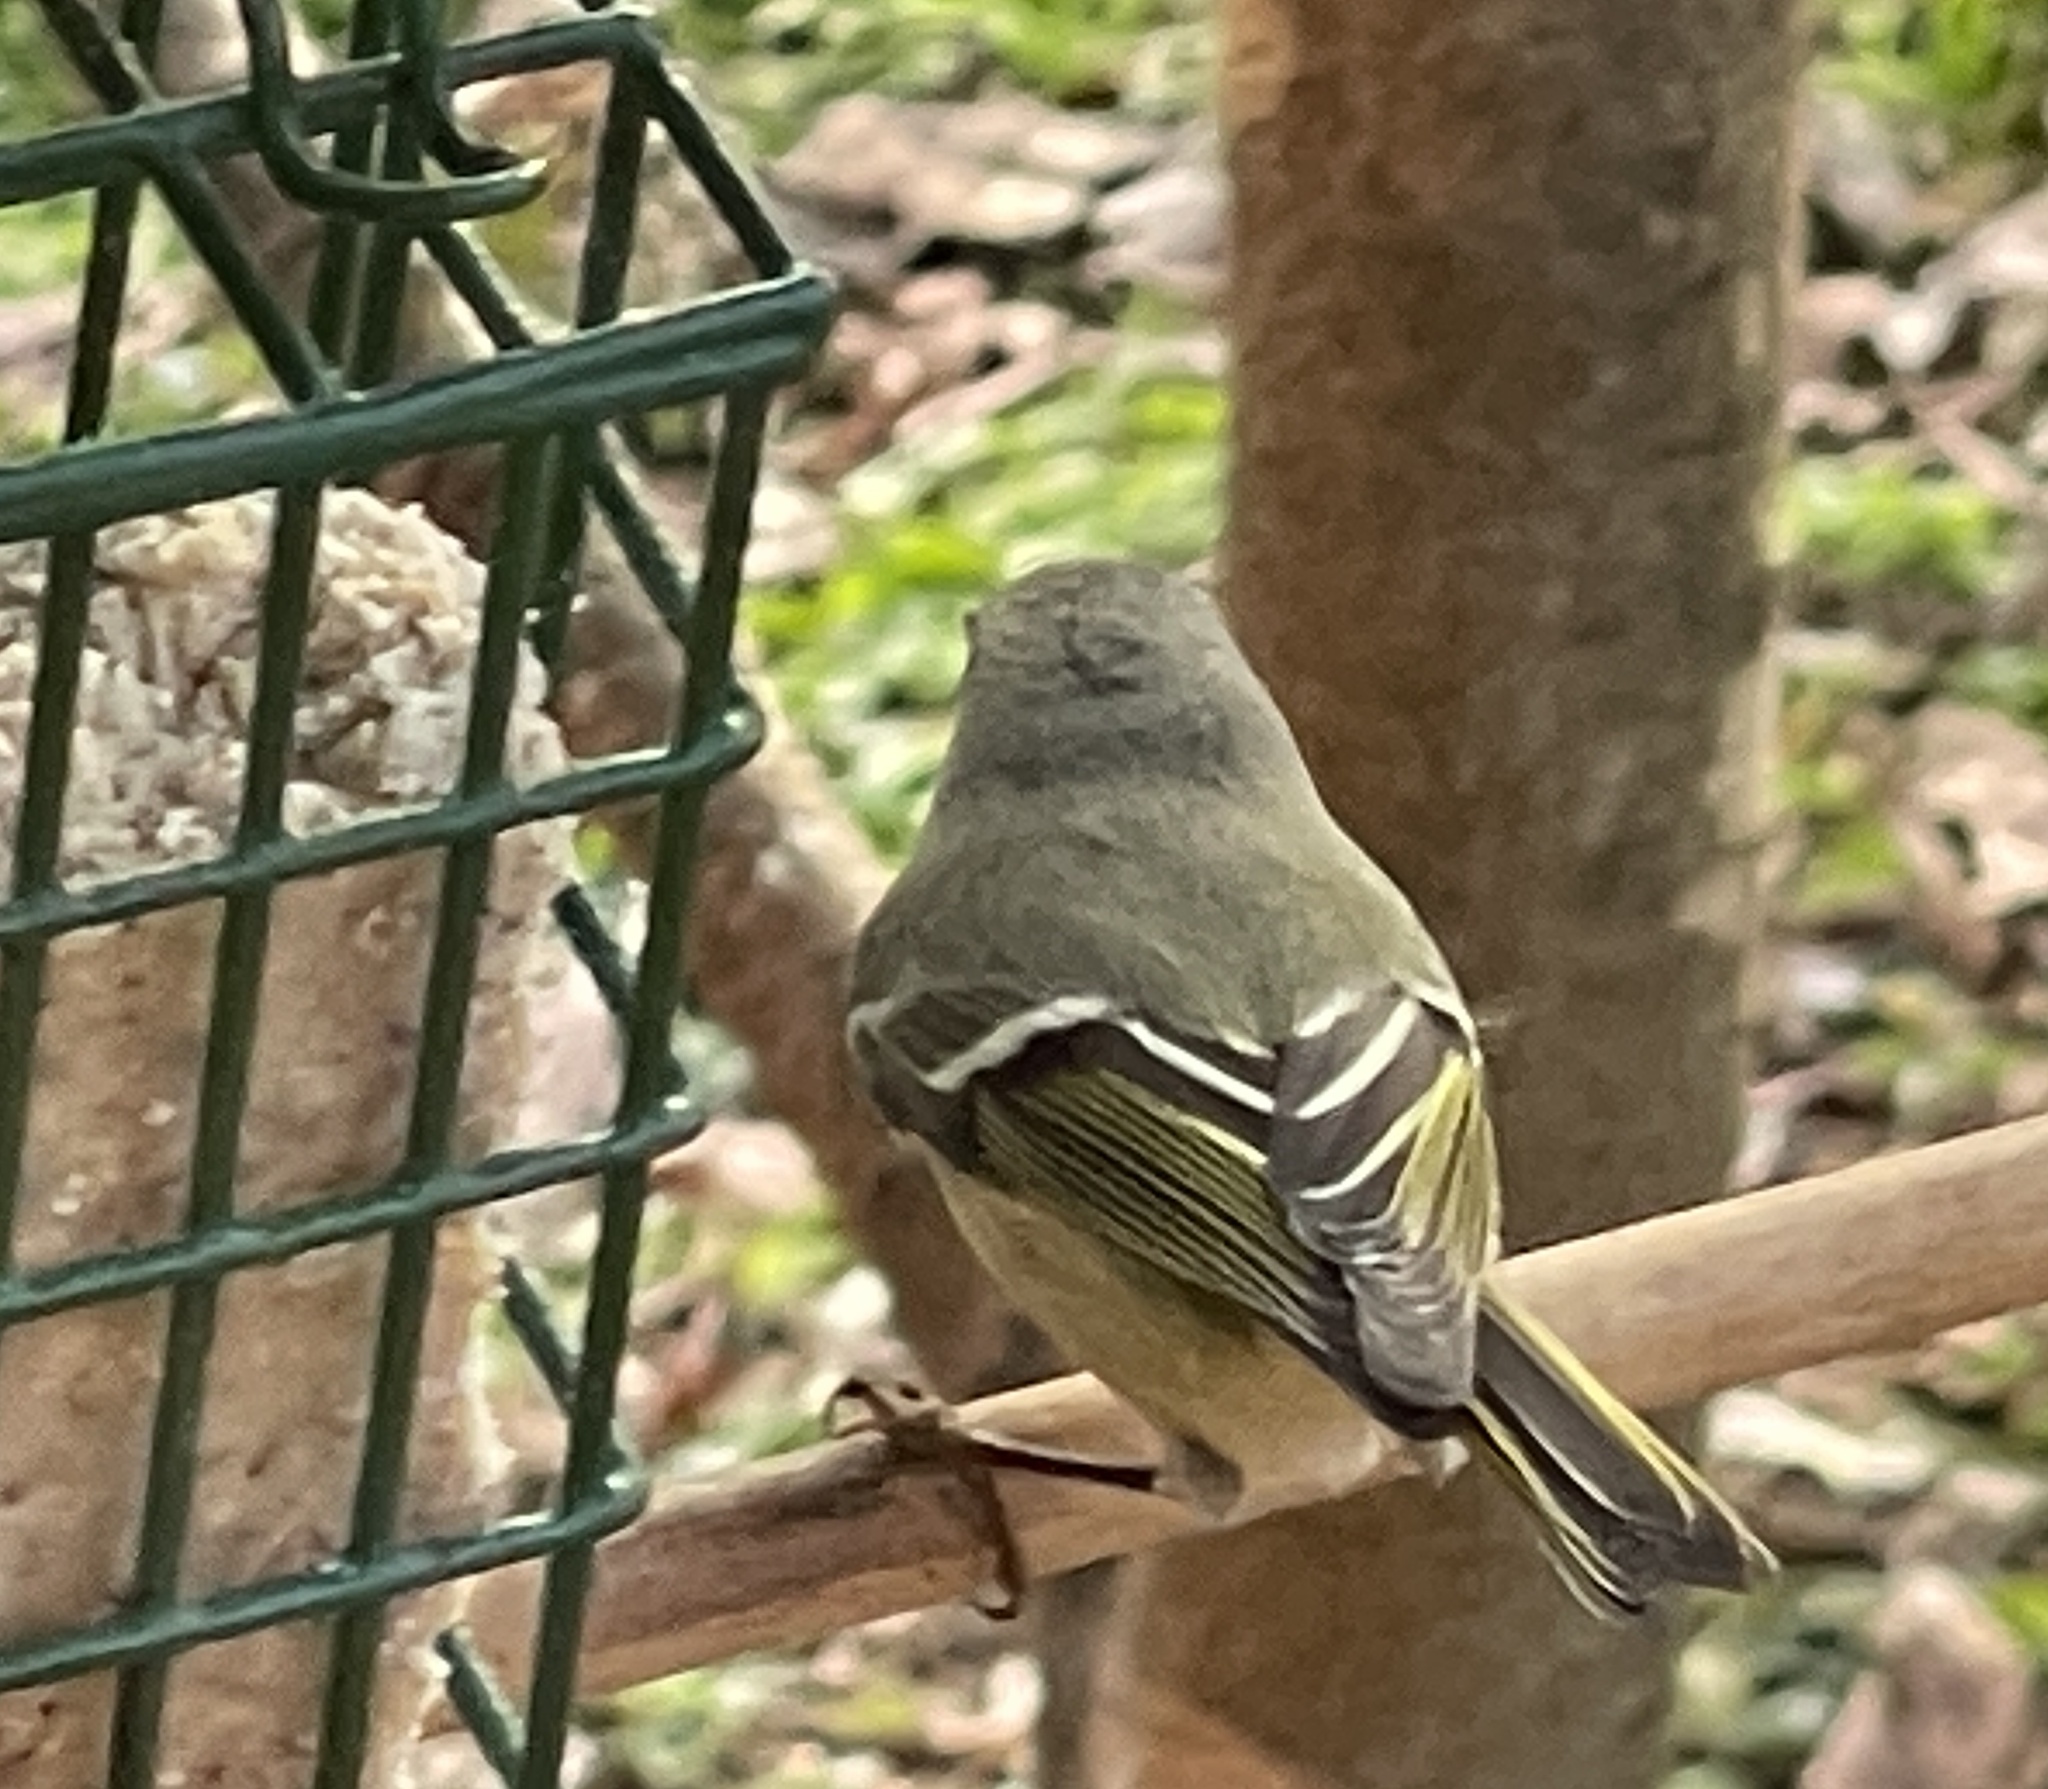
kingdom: Animalia
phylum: Chordata
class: Aves
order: Passeriformes
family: Regulidae
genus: Regulus
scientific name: Regulus calendula
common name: Ruby-crowned kinglet
